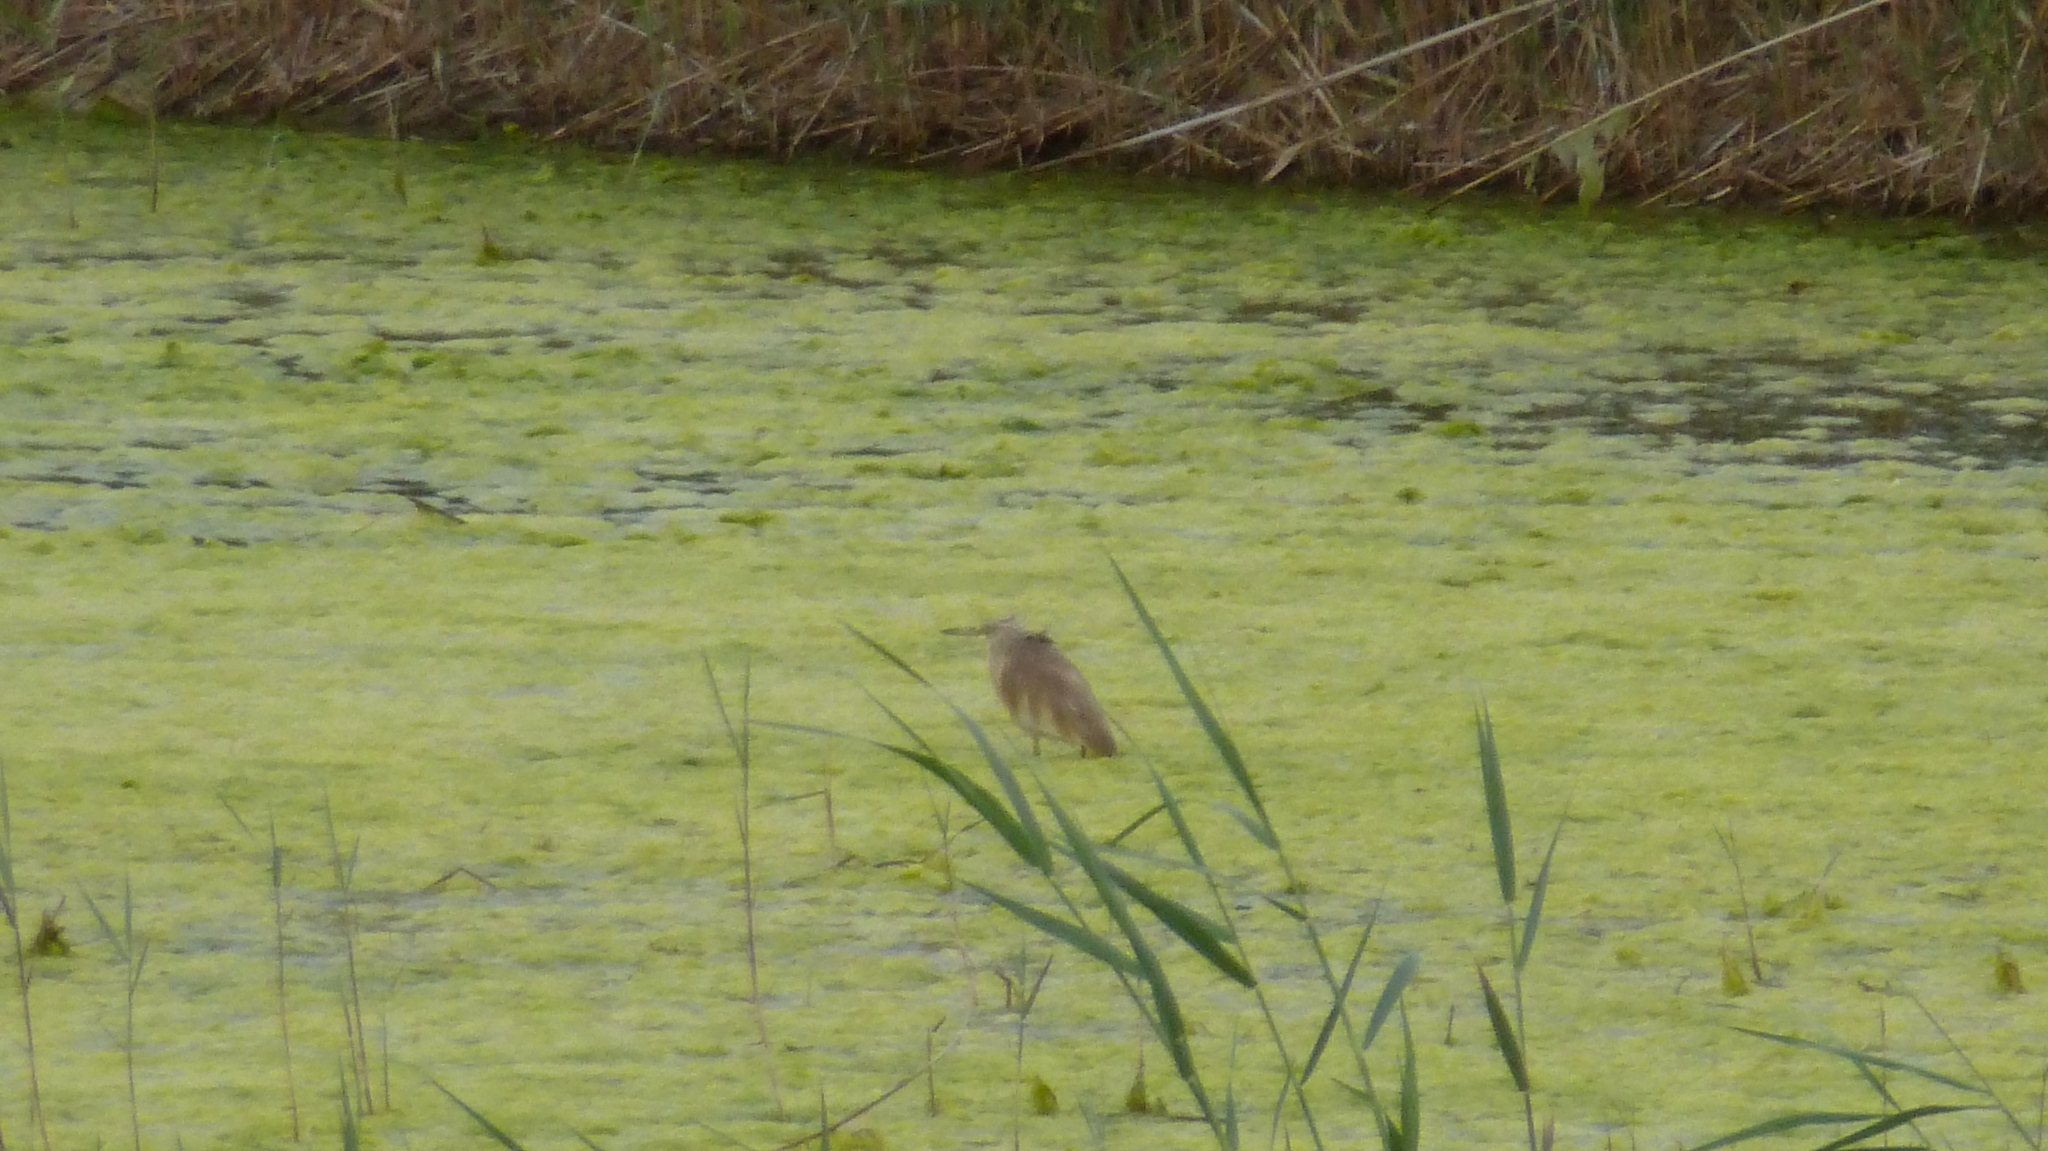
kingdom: Animalia
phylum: Chordata
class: Aves
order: Pelecaniformes
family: Ardeidae
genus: Ardeola
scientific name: Ardeola ralloides
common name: Squacco heron
